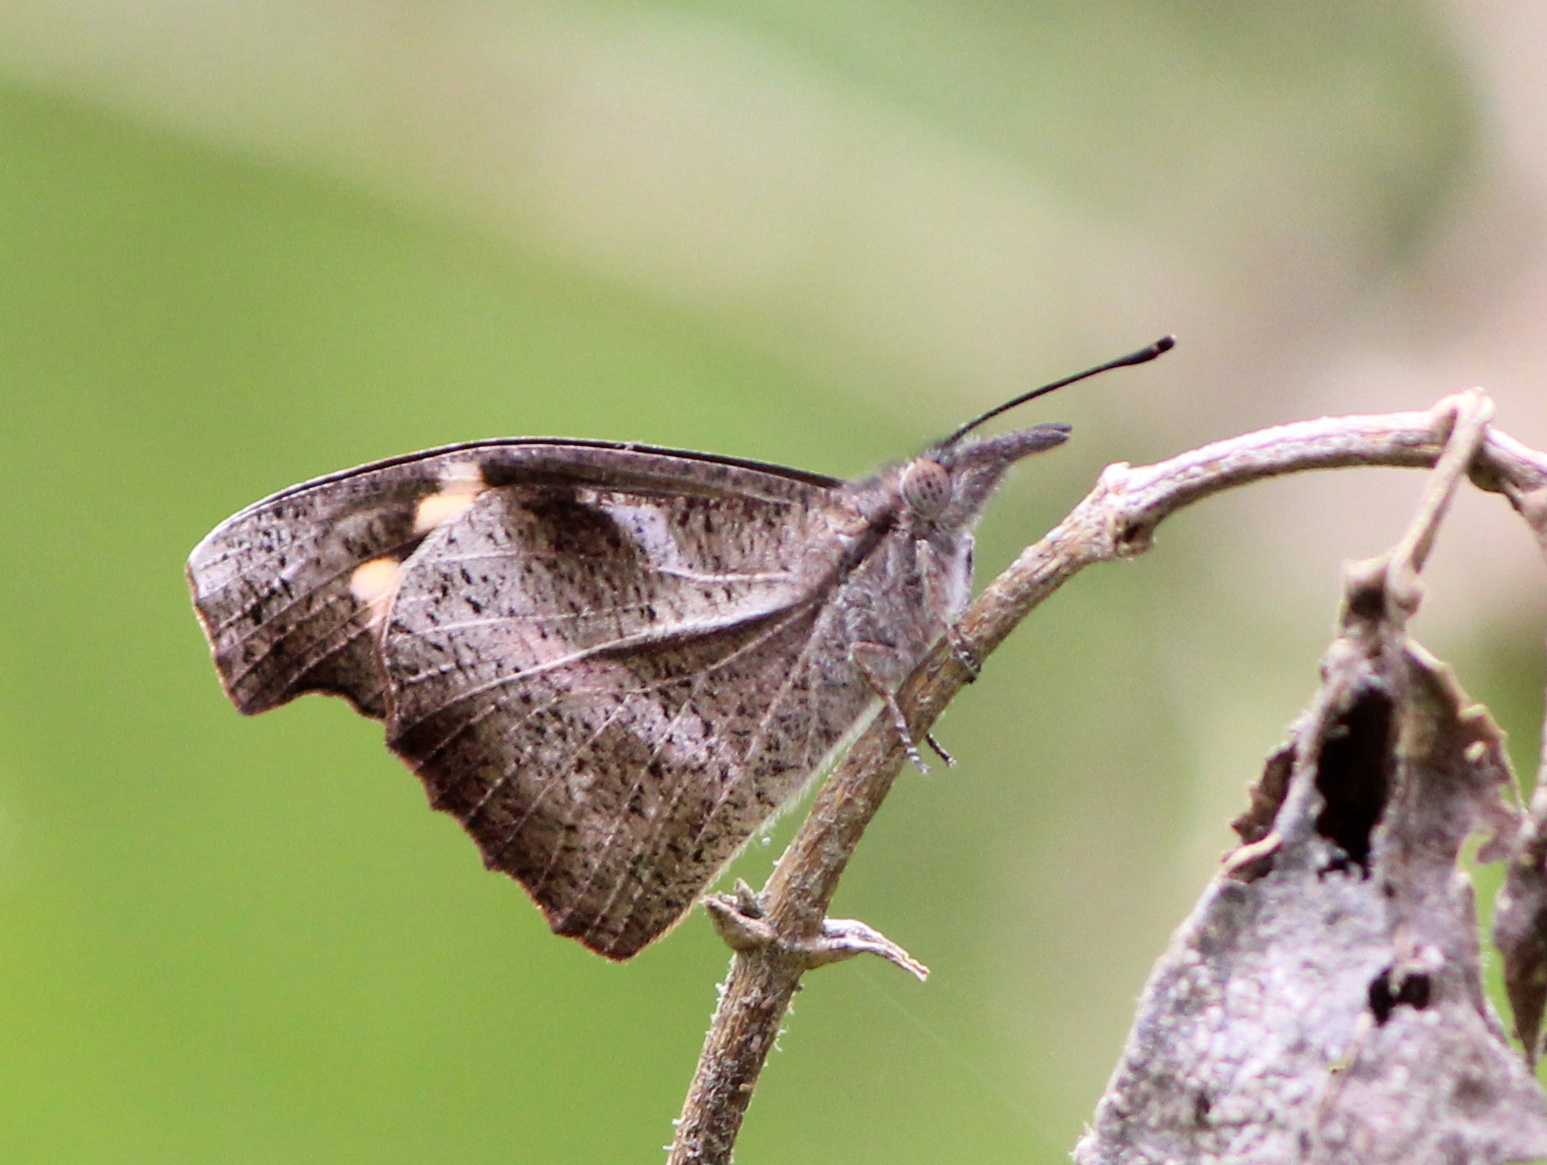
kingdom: Animalia
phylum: Arthropoda
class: Insecta
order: Lepidoptera
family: Nymphalidae
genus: Libythea
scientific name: Libythea myrrha
